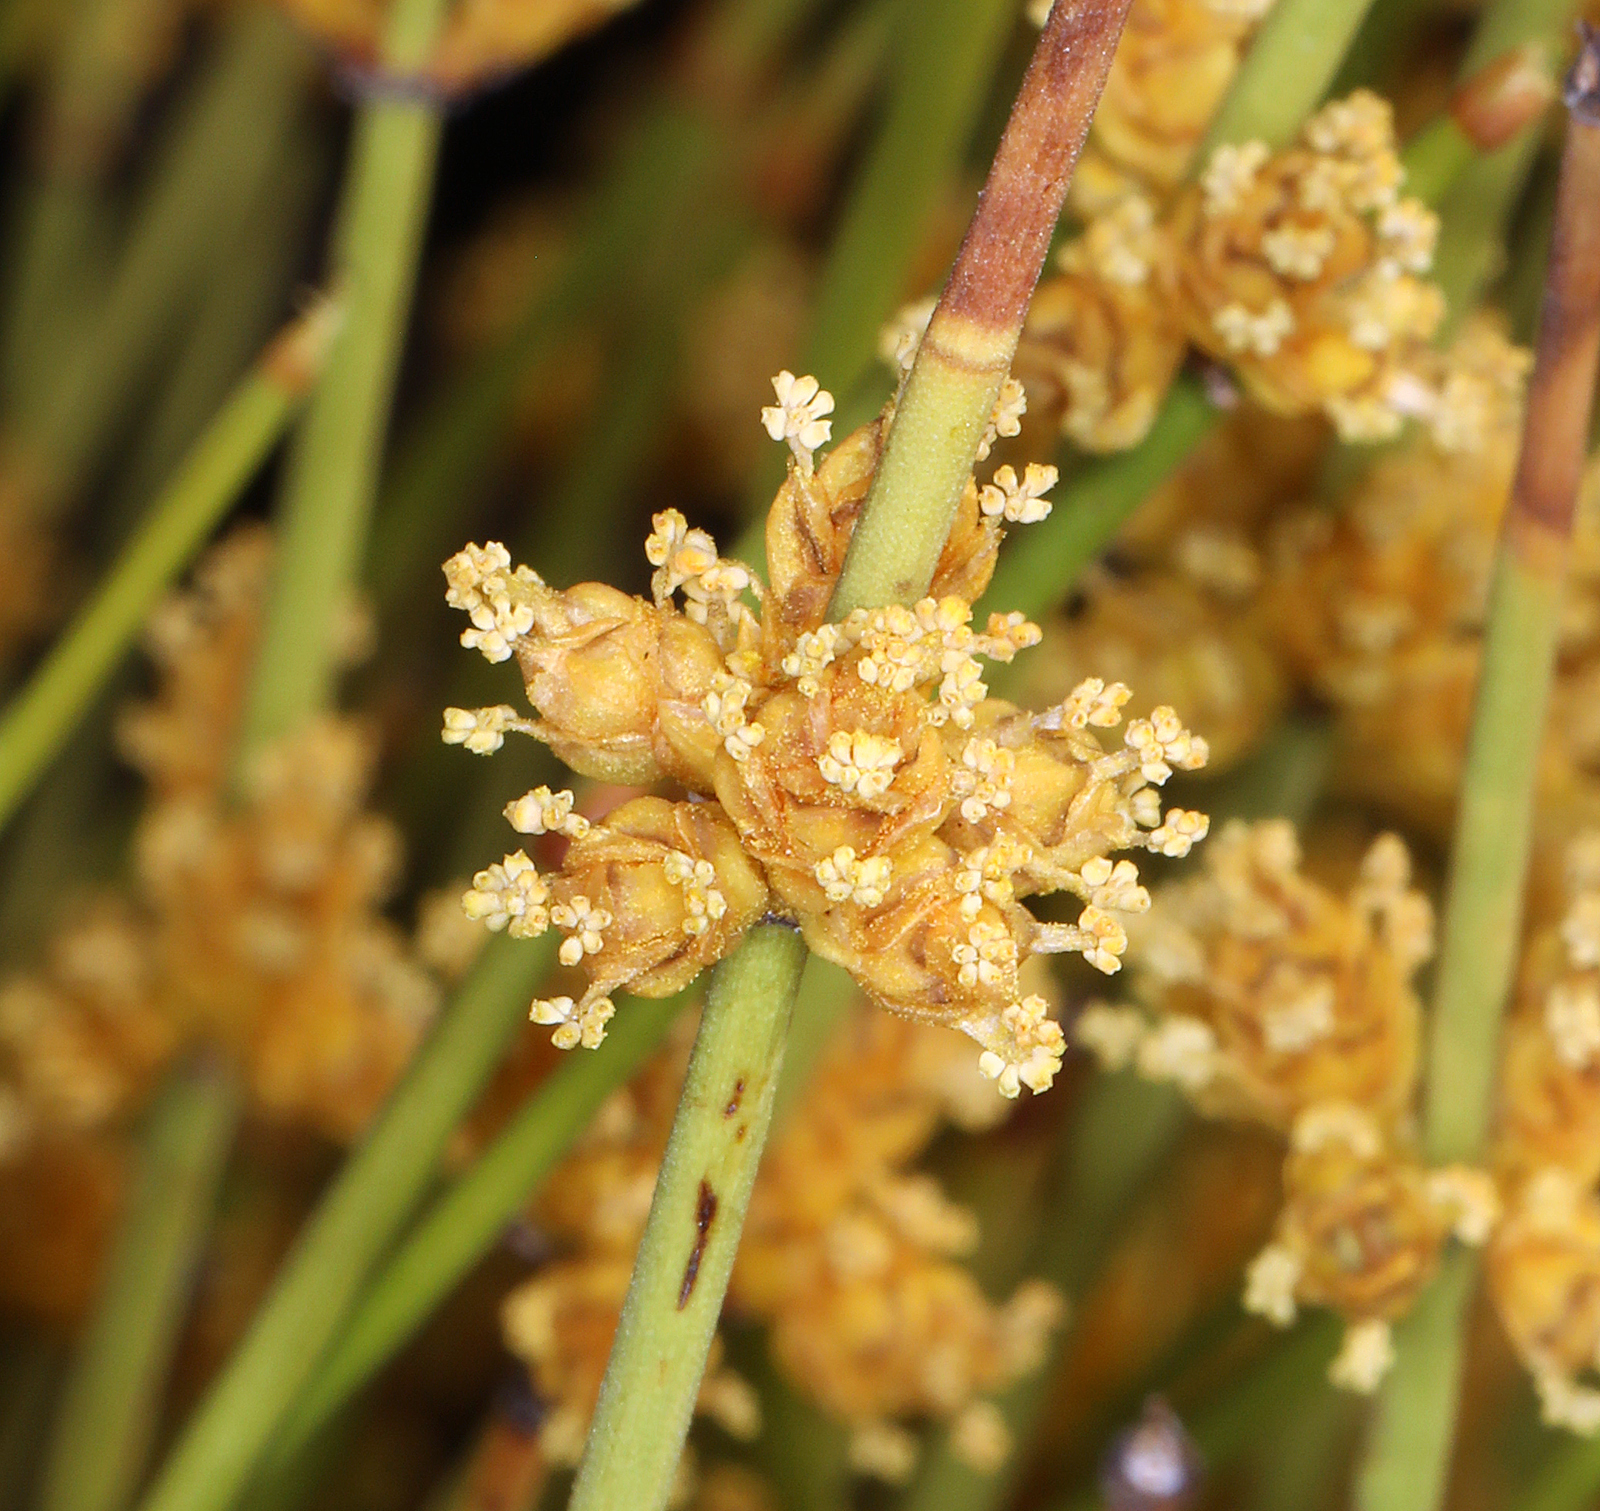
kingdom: Plantae
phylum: Tracheophyta
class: Gnetopsida
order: Ephedrales
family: Ephedraceae
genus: Ephedra
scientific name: Ephedra viridis
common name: Green ephedra
